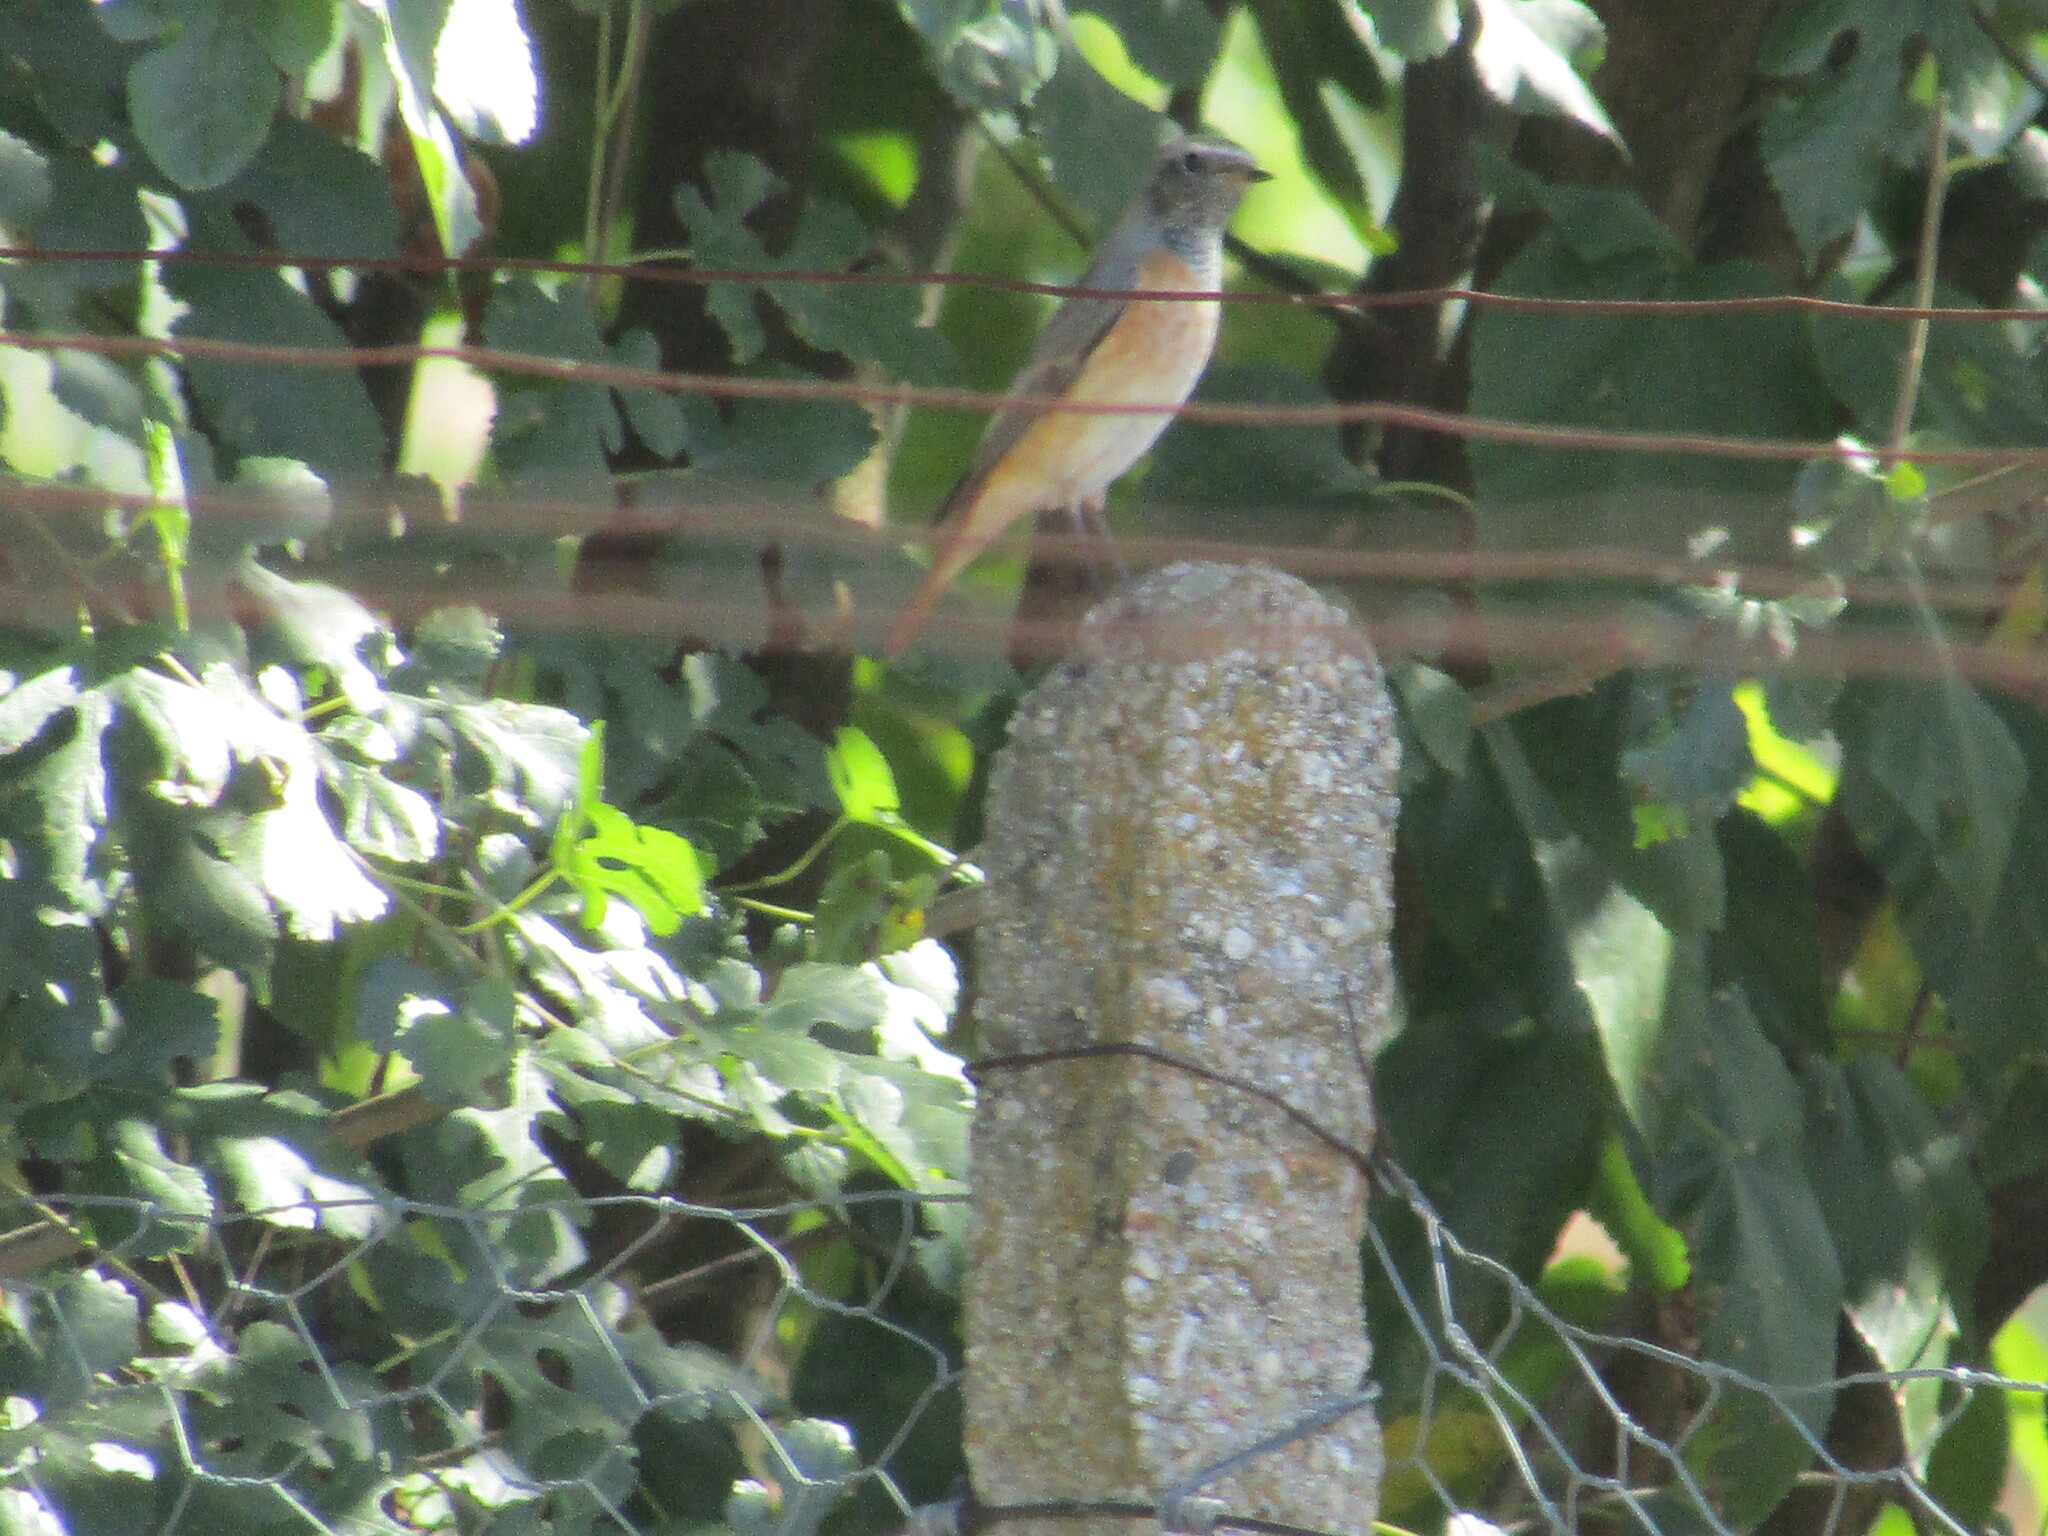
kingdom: Animalia
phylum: Chordata
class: Aves
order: Passeriformes
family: Muscicapidae
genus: Phoenicurus
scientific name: Phoenicurus phoenicurus
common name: Common redstart
